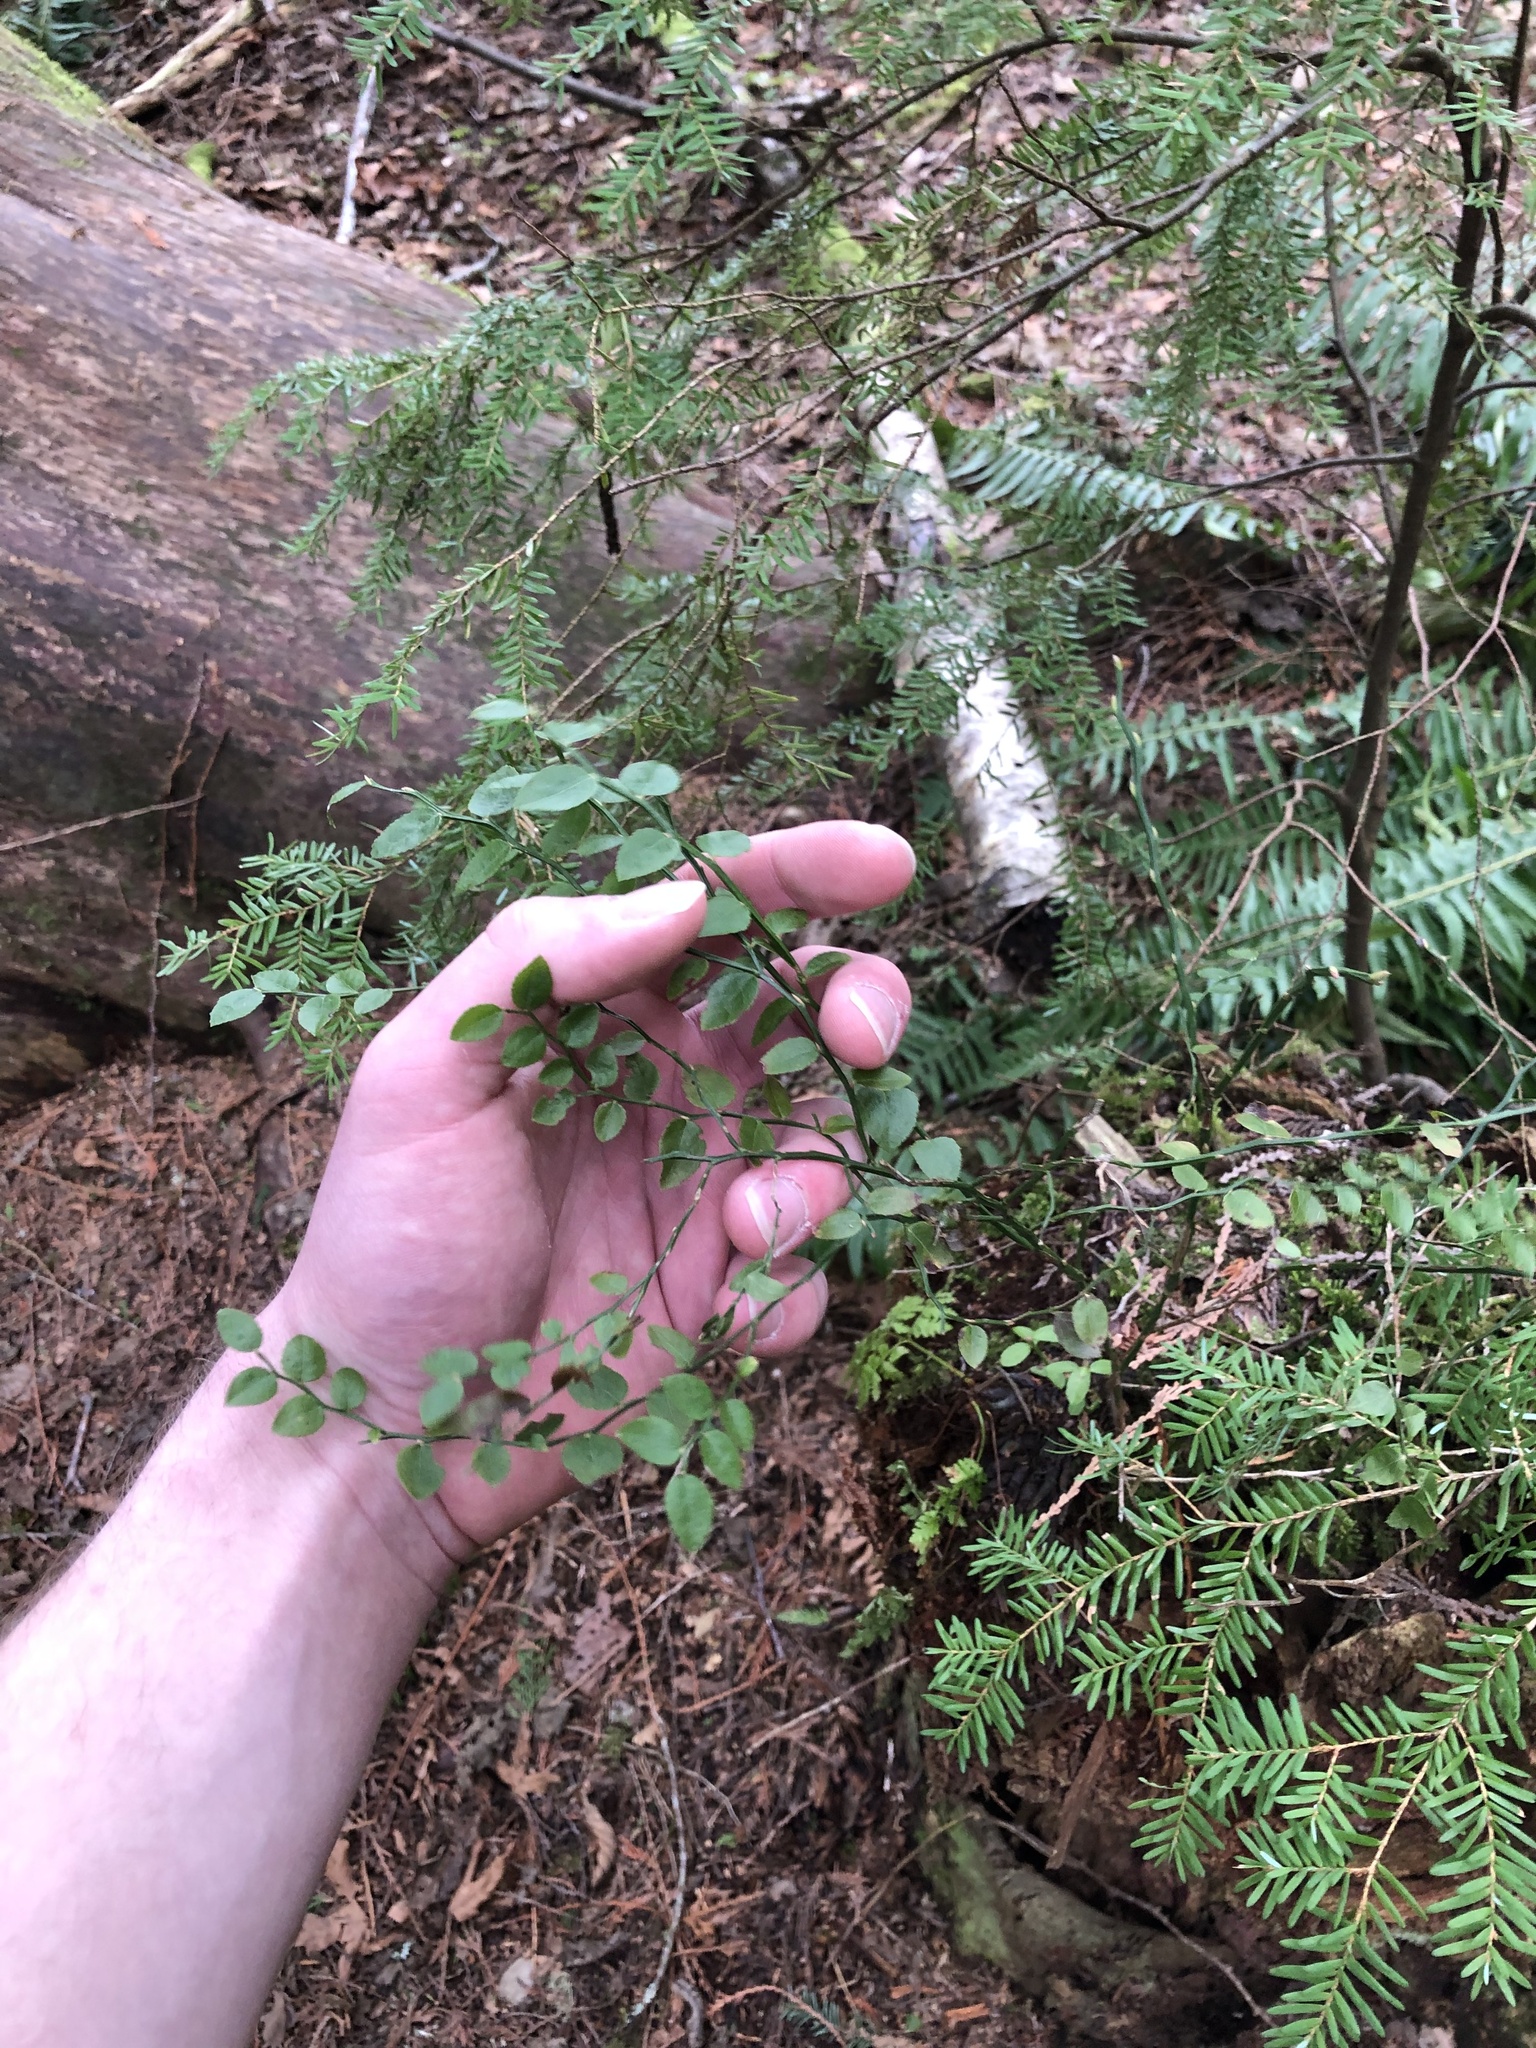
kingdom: Plantae
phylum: Tracheophyta
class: Magnoliopsida
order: Ericales
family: Ericaceae
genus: Vaccinium
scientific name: Vaccinium parvifolium
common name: Red-huckleberry
